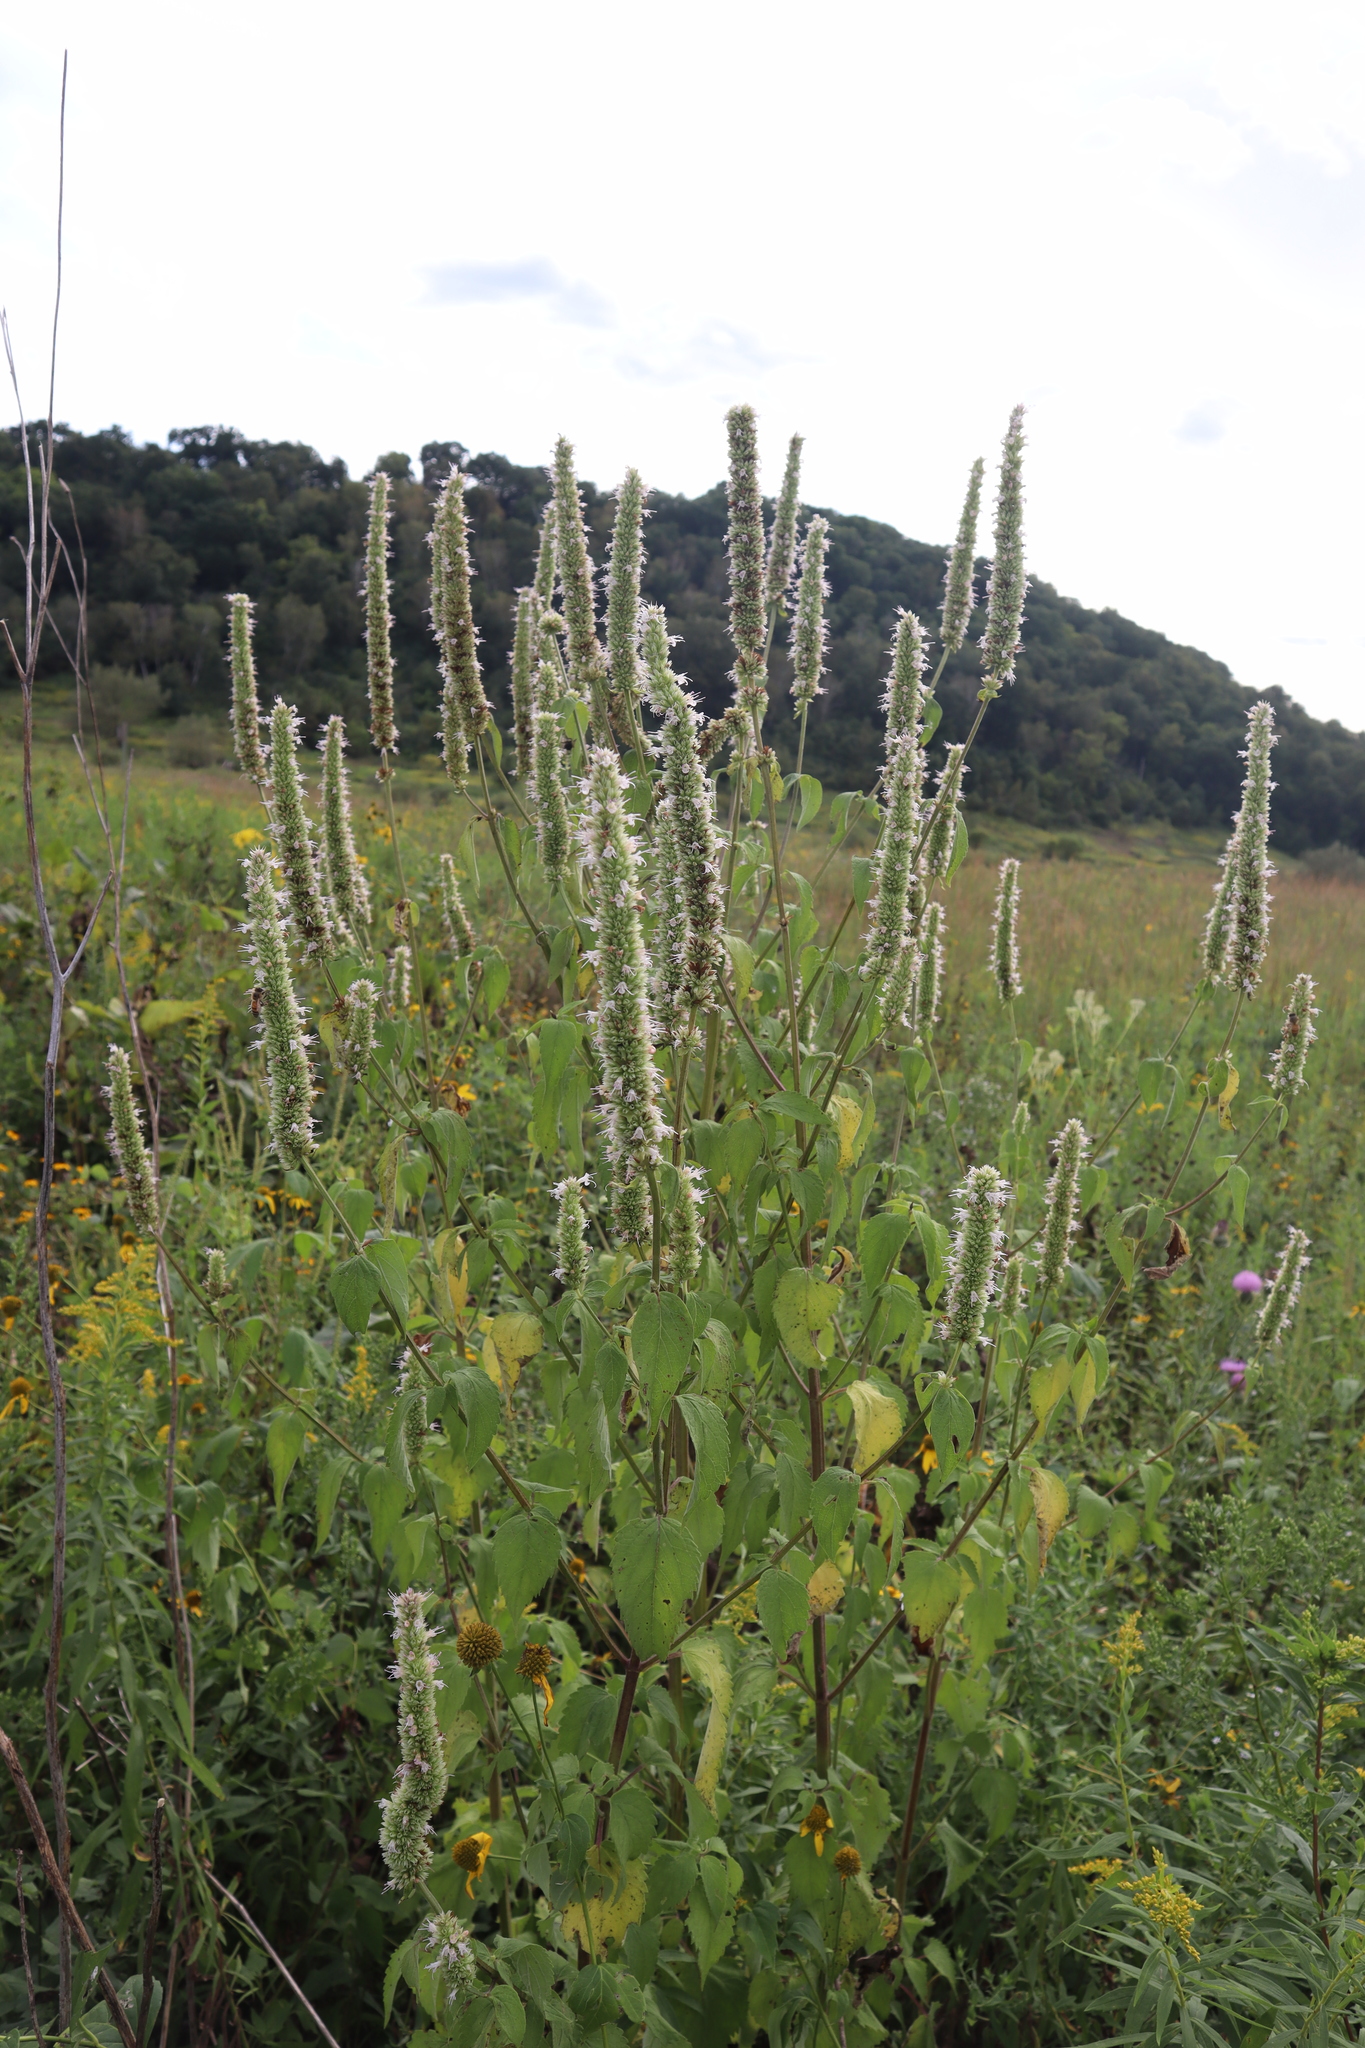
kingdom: Plantae
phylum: Tracheophyta
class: Magnoliopsida
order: Lamiales
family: Lamiaceae
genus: Agastache
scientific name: Agastache scrophulariifolia
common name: Figwort giant hyssop
